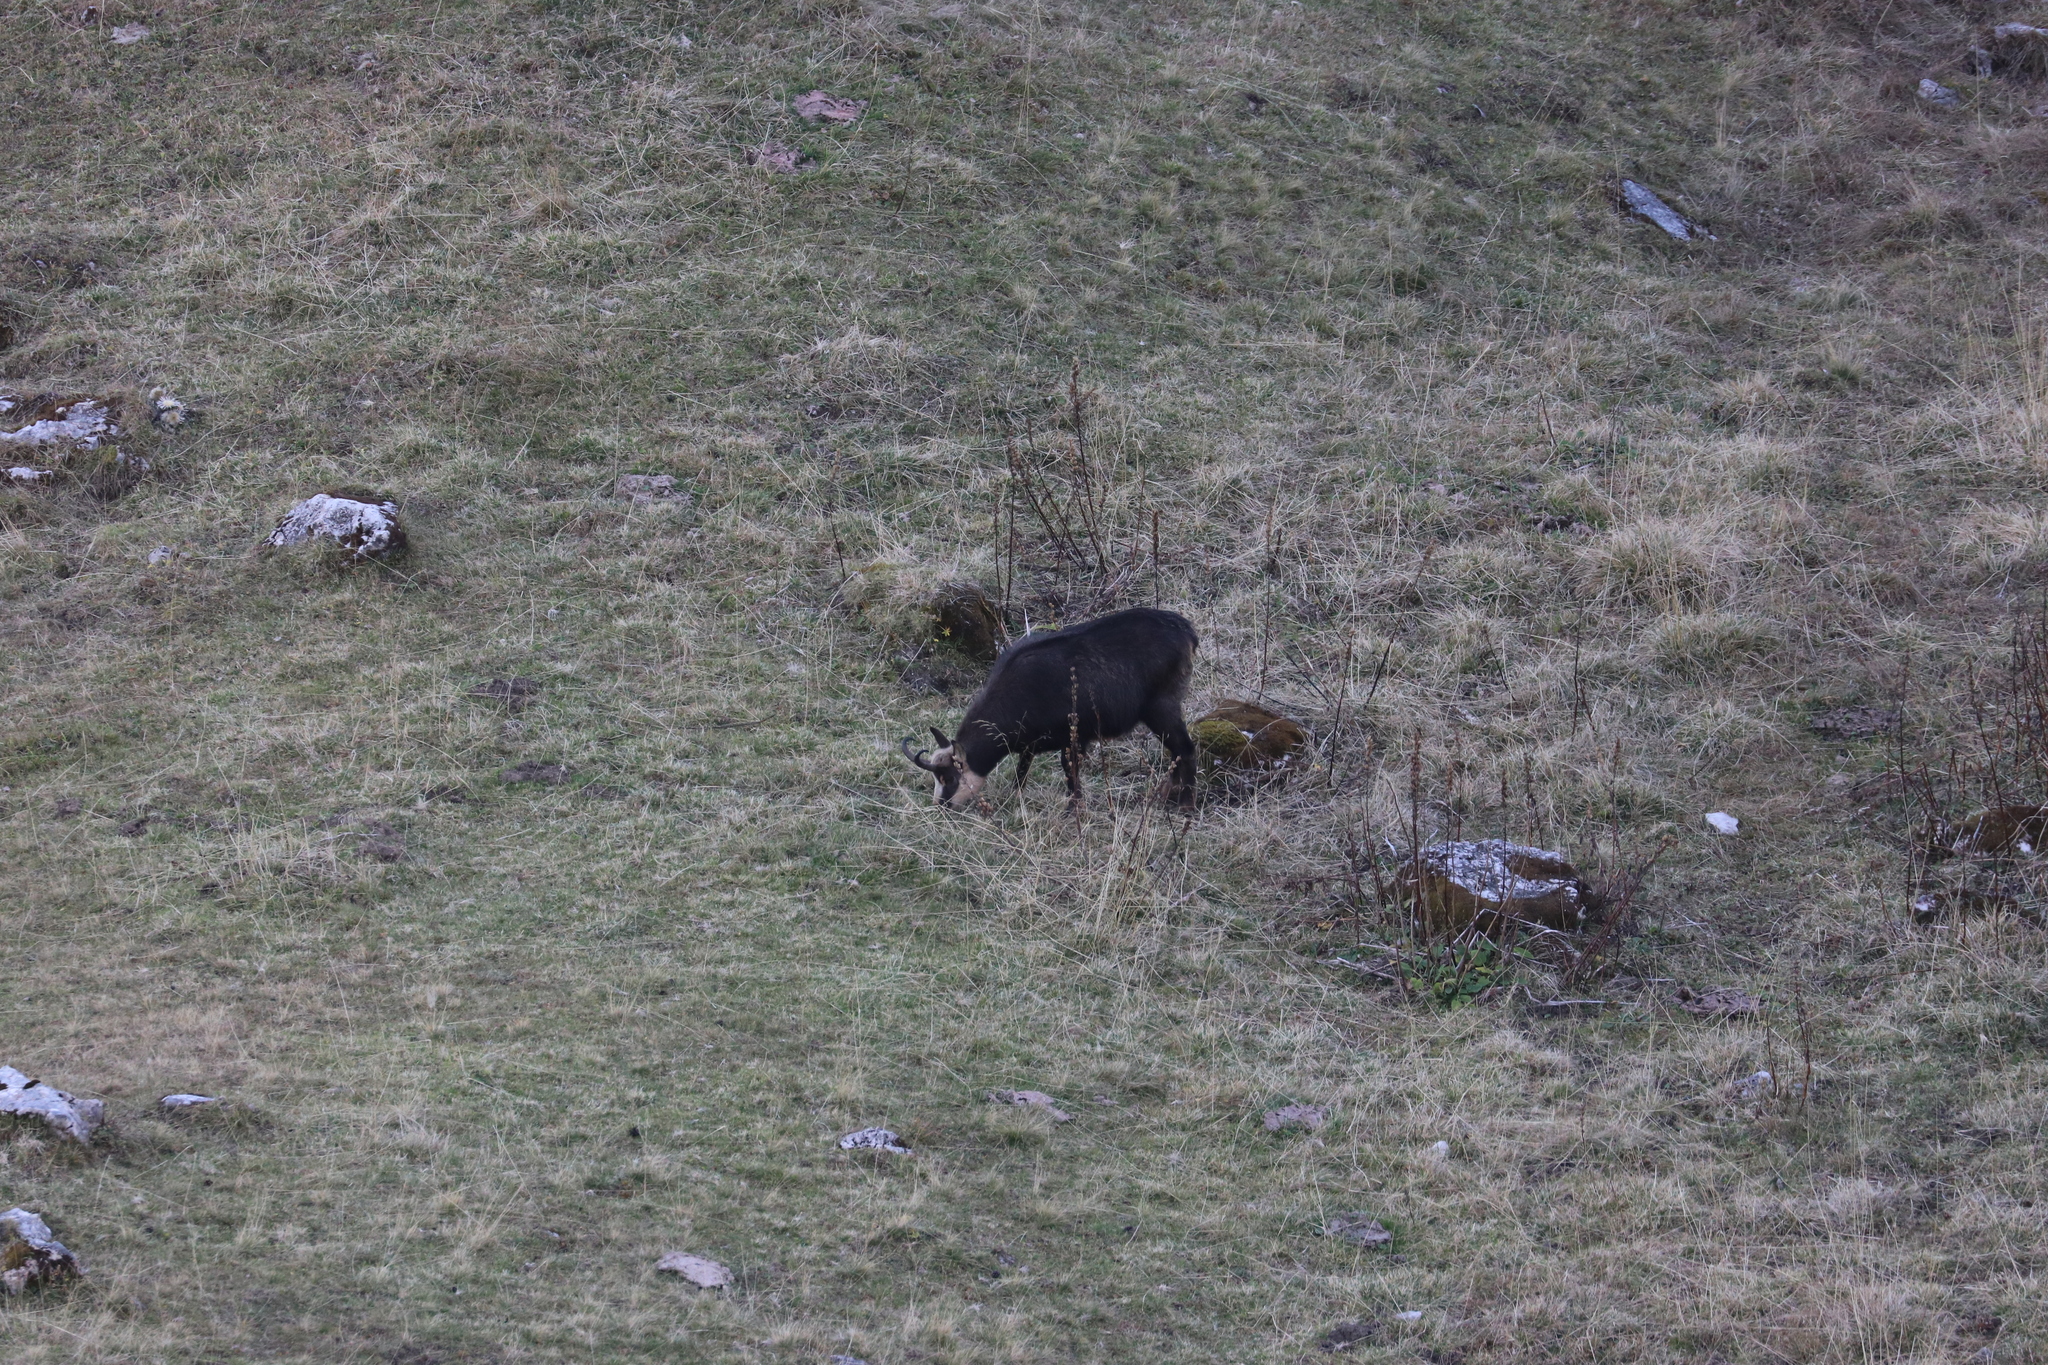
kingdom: Animalia
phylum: Chordata
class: Mammalia
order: Artiodactyla
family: Bovidae
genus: Rupicapra
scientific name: Rupicapra rupicapra
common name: Chamois
